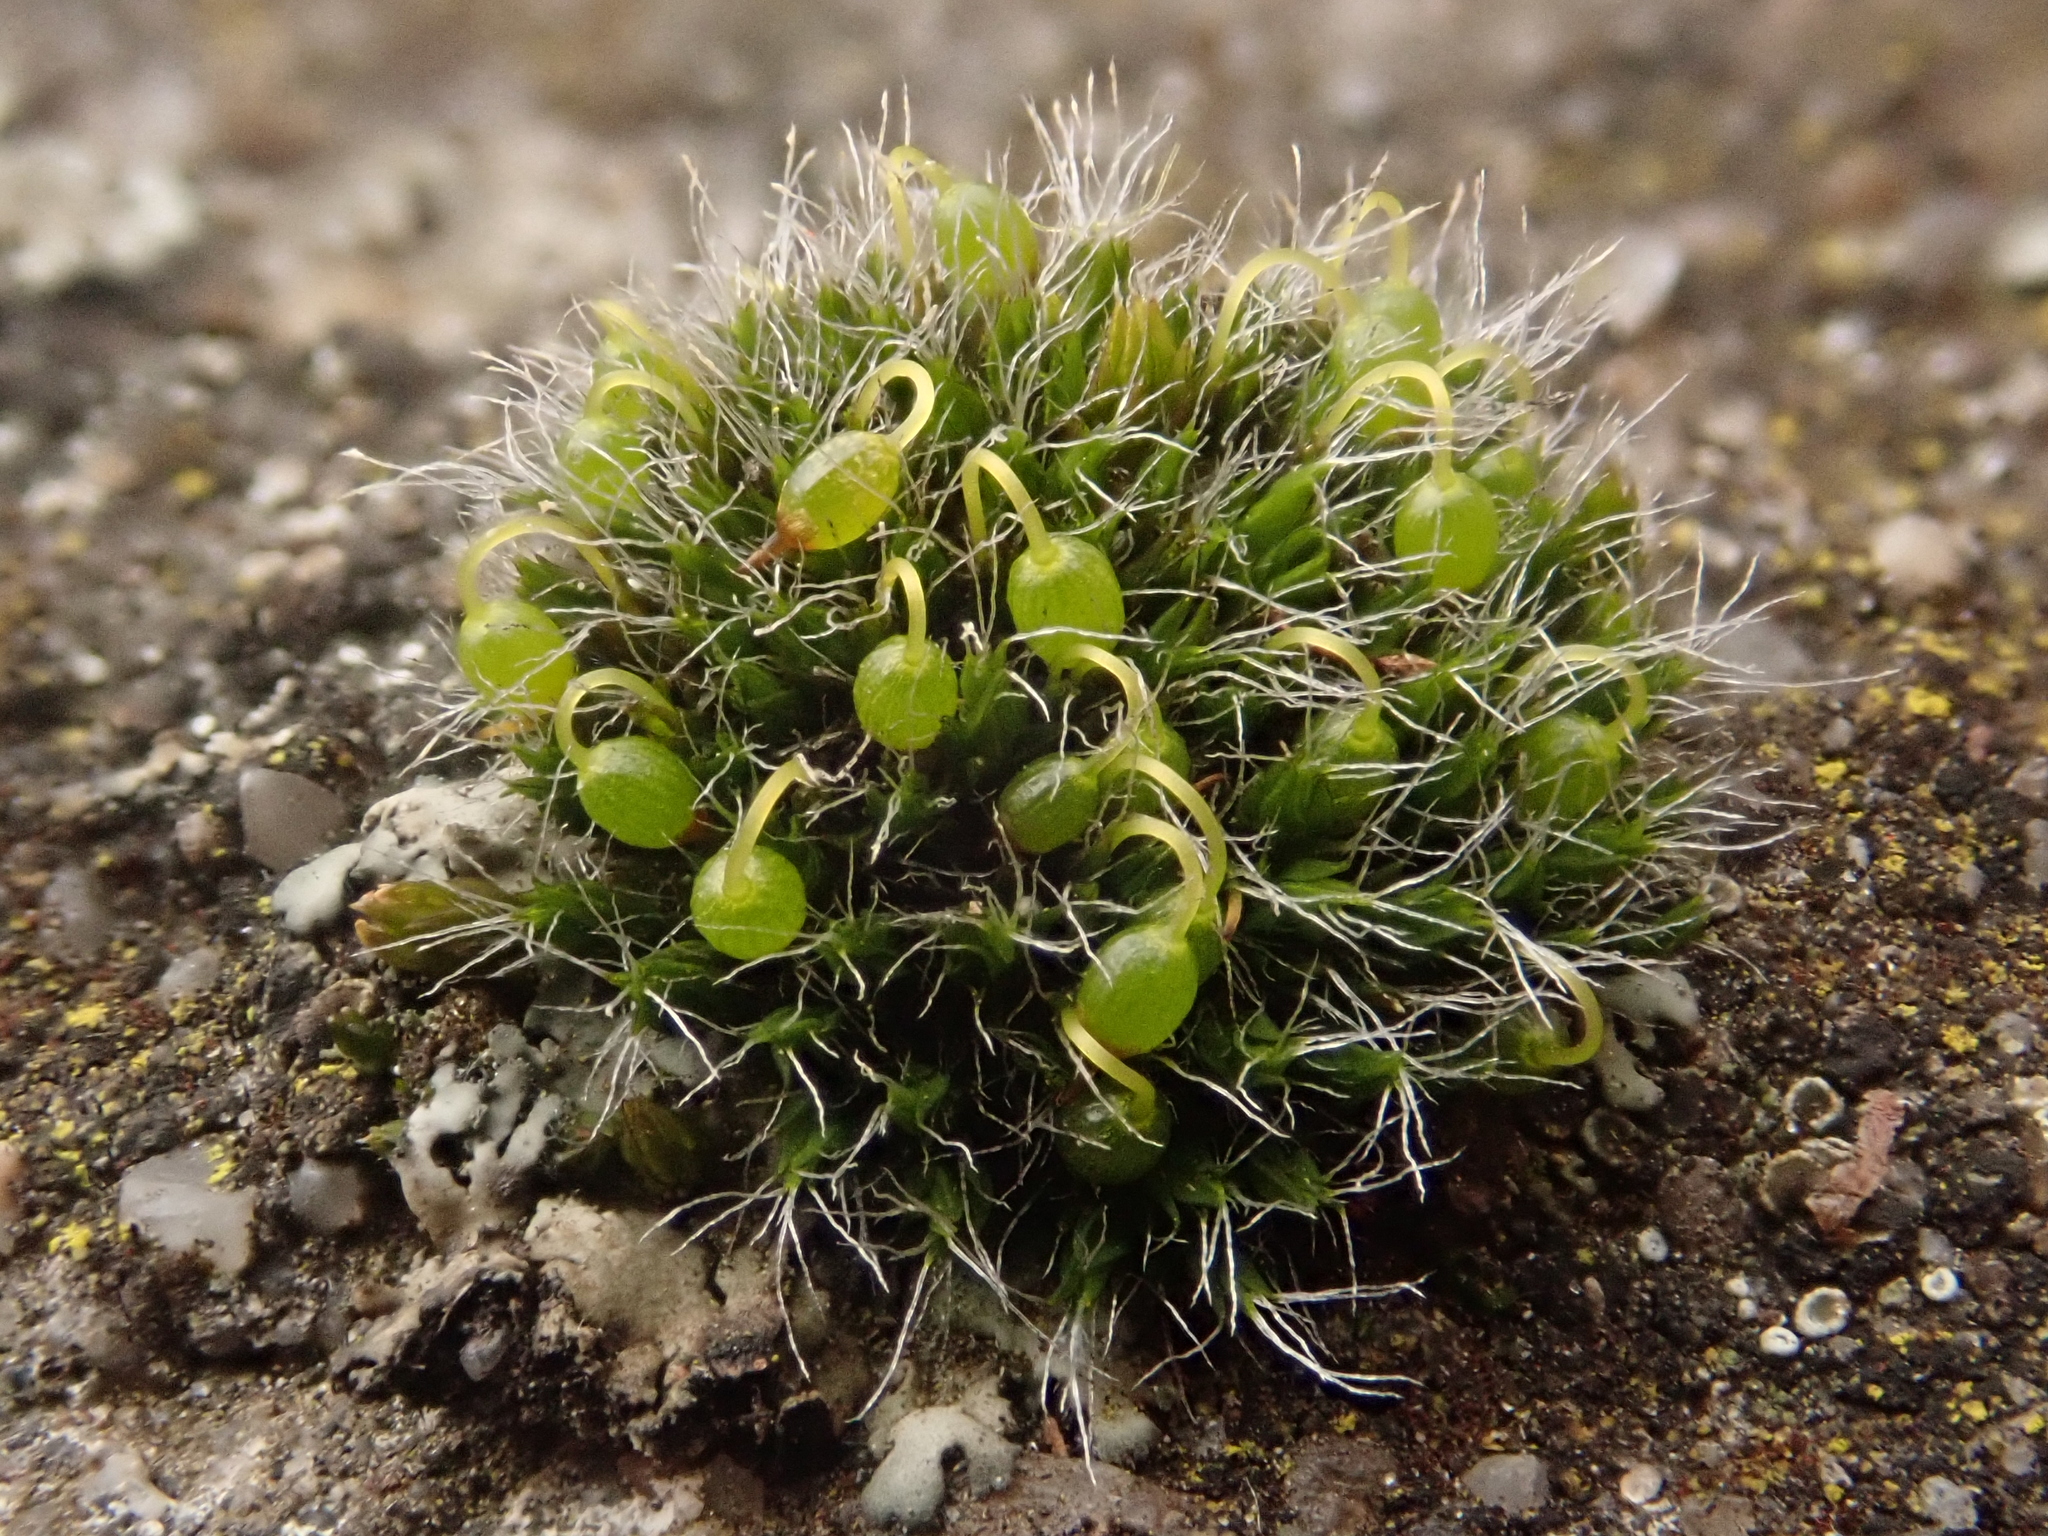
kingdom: Plantae
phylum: Bryophyta
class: Bryopsida
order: Grimmiales
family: Grimmiaceae
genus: Grimmia
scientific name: Grimmia pulvinata
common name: Grey-cushioned grimmia
